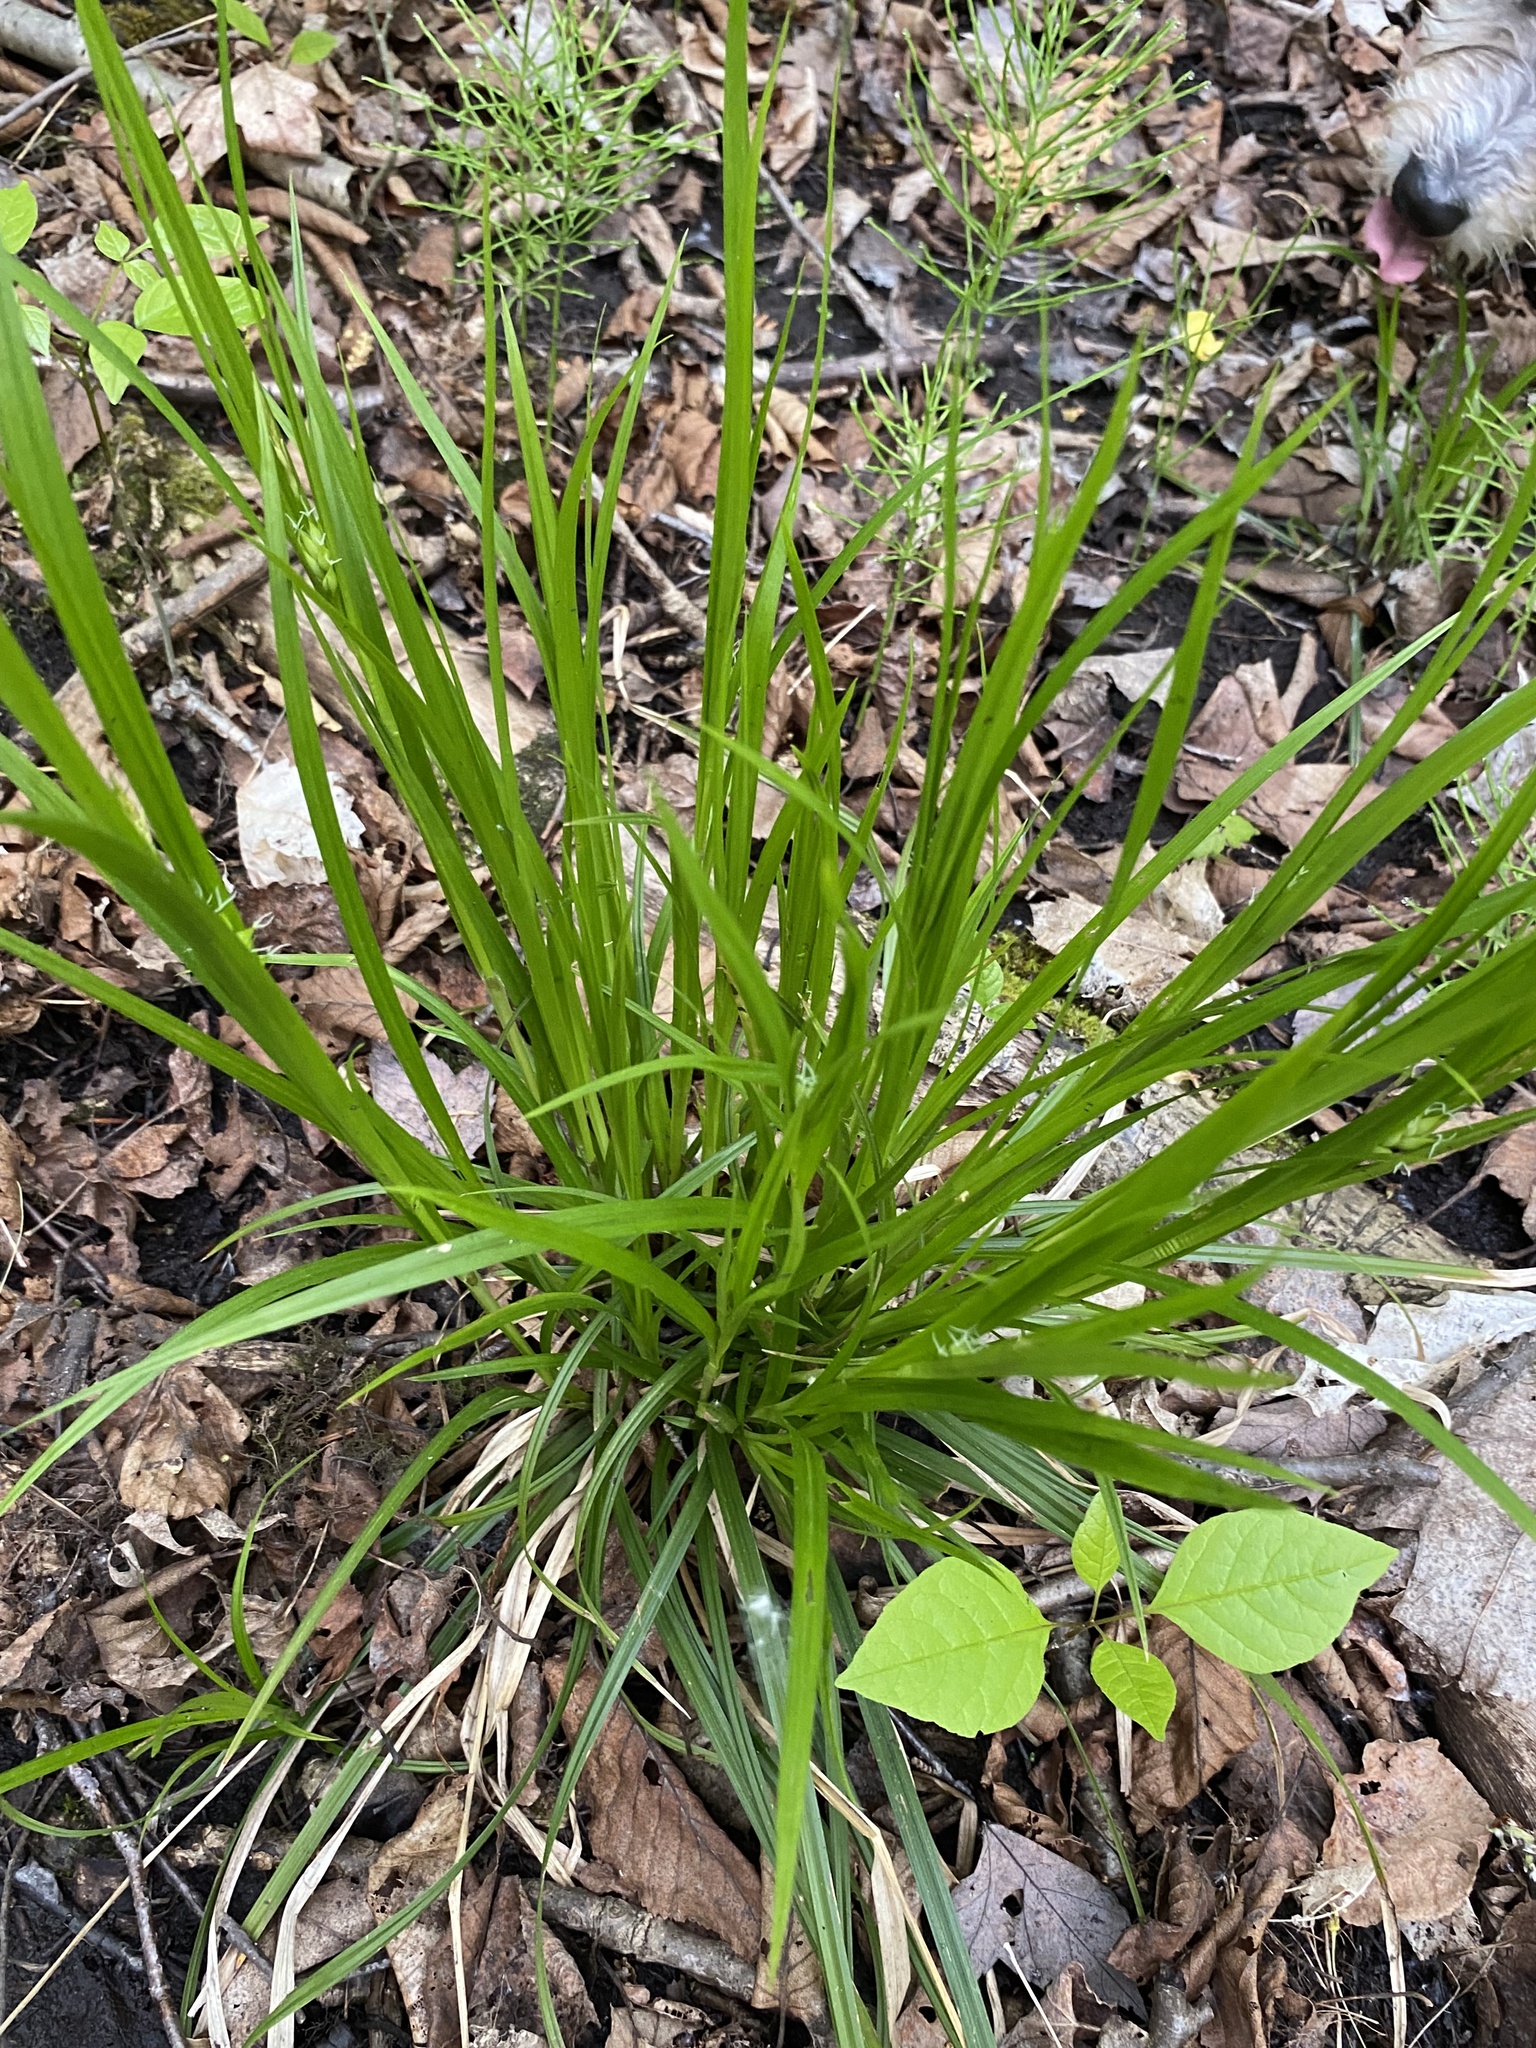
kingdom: Plantae
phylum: Tracheophyta
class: Liliopsida
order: Poales
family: Cyperaceae
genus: Carex
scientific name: Carex intumescens
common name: Greater bladder sedge
